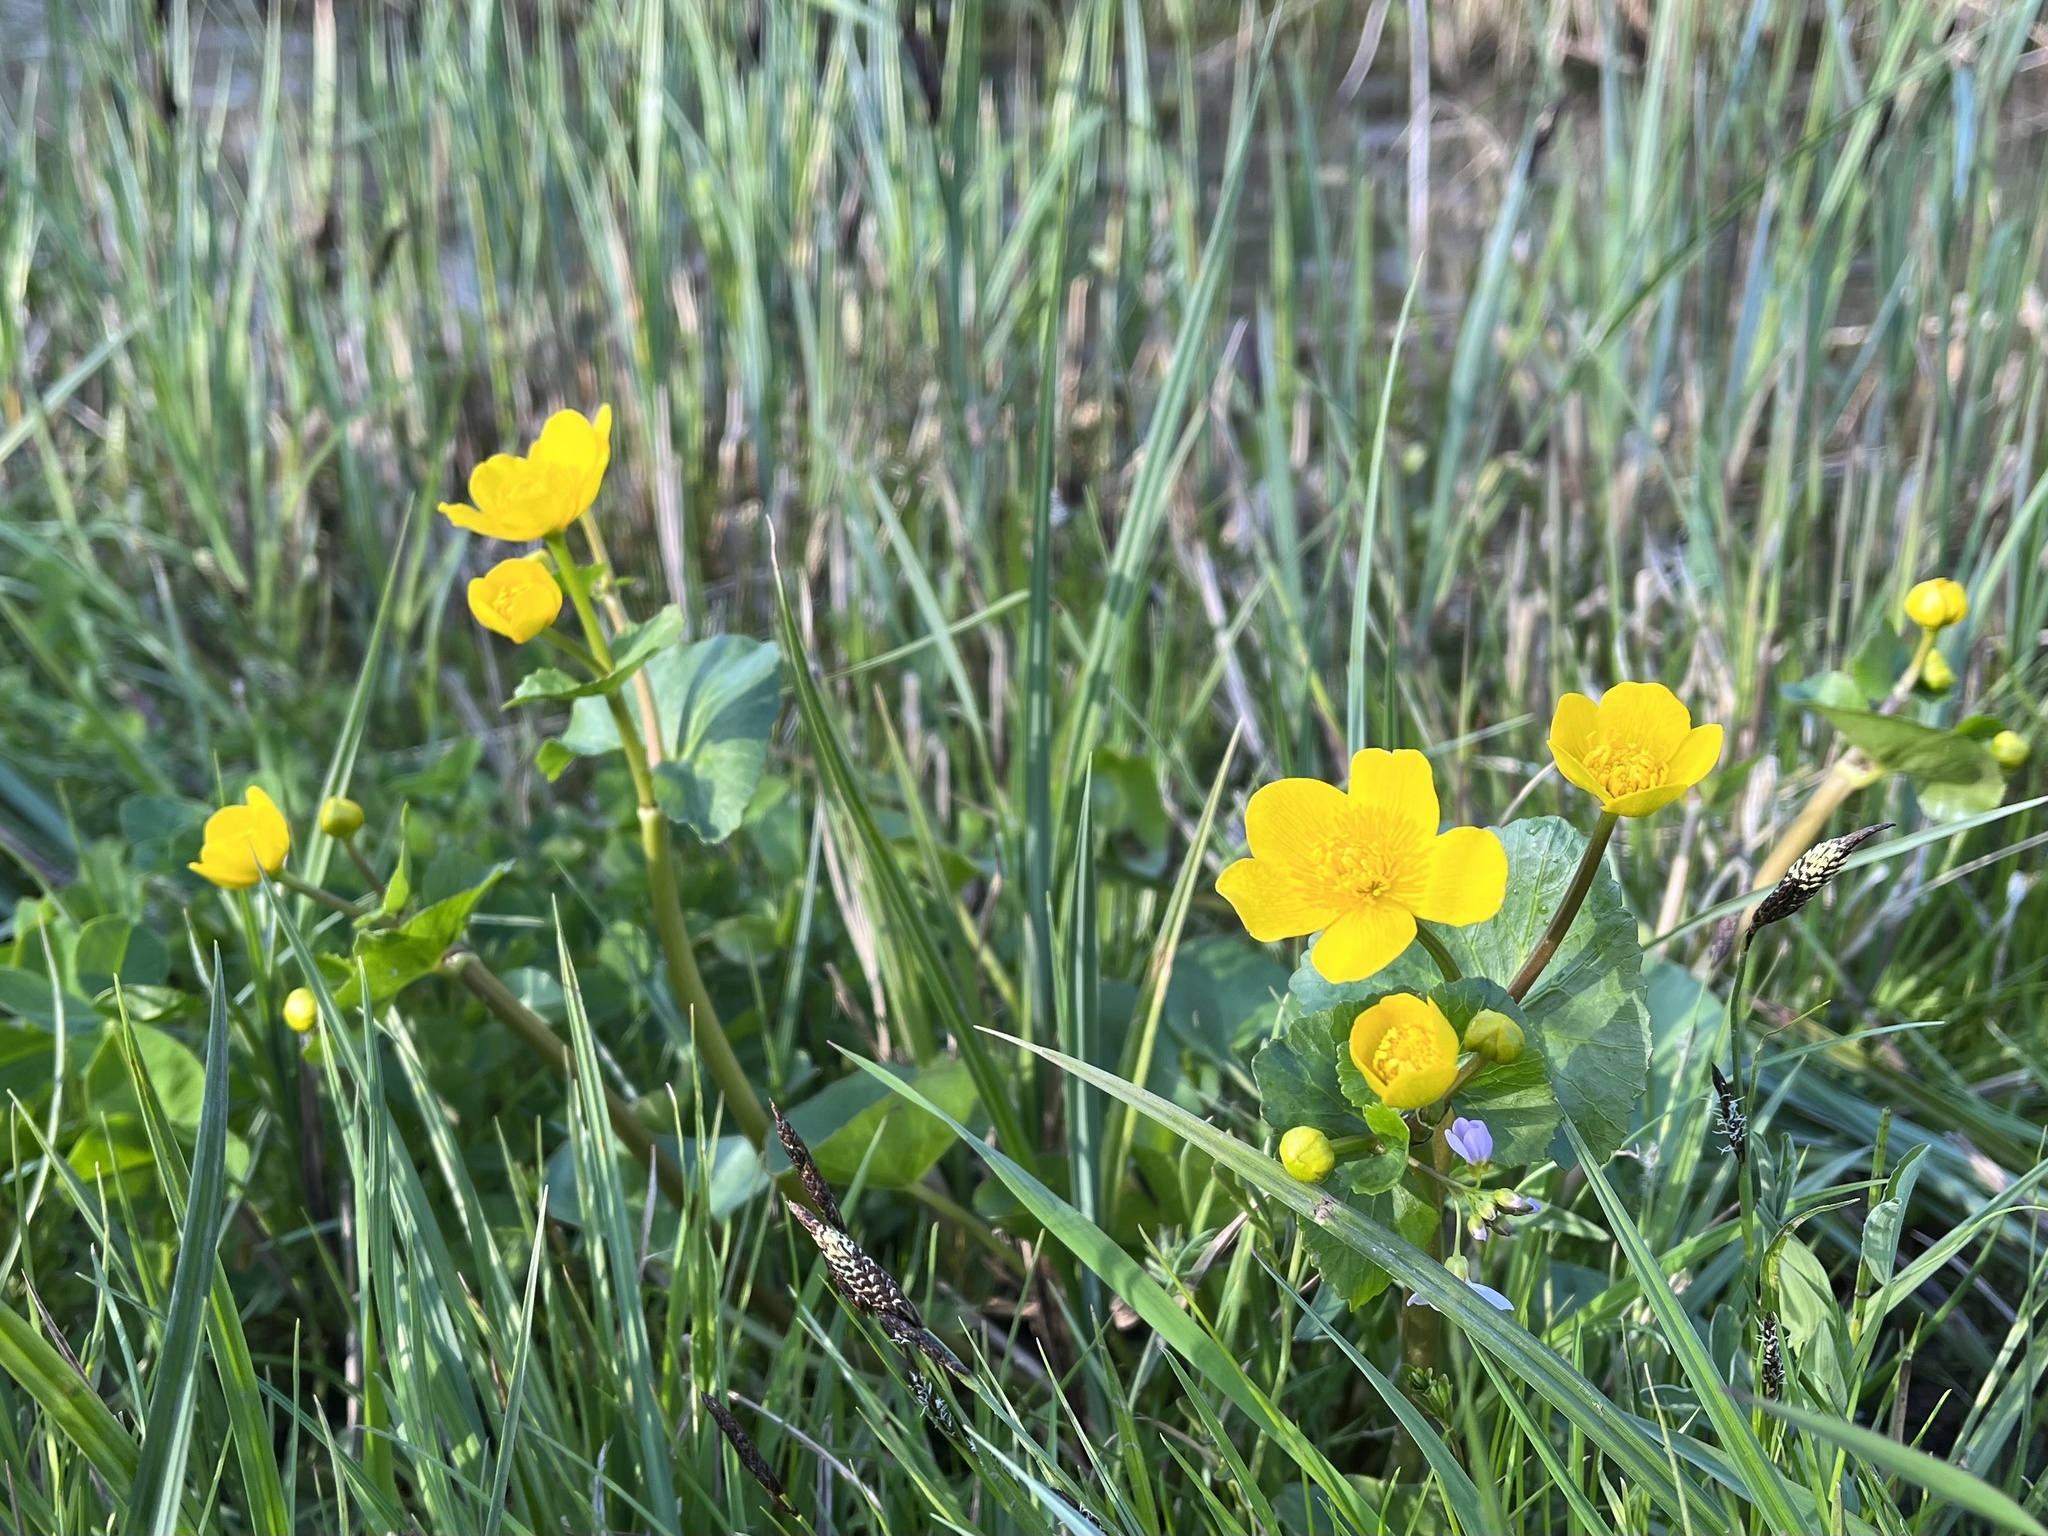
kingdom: Plantae
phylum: Tracheophyta
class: Magnoliopsida
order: Ranunculales
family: Ranunculaceae
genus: Caltha
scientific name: Caltha palustris
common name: Marsh marigold
